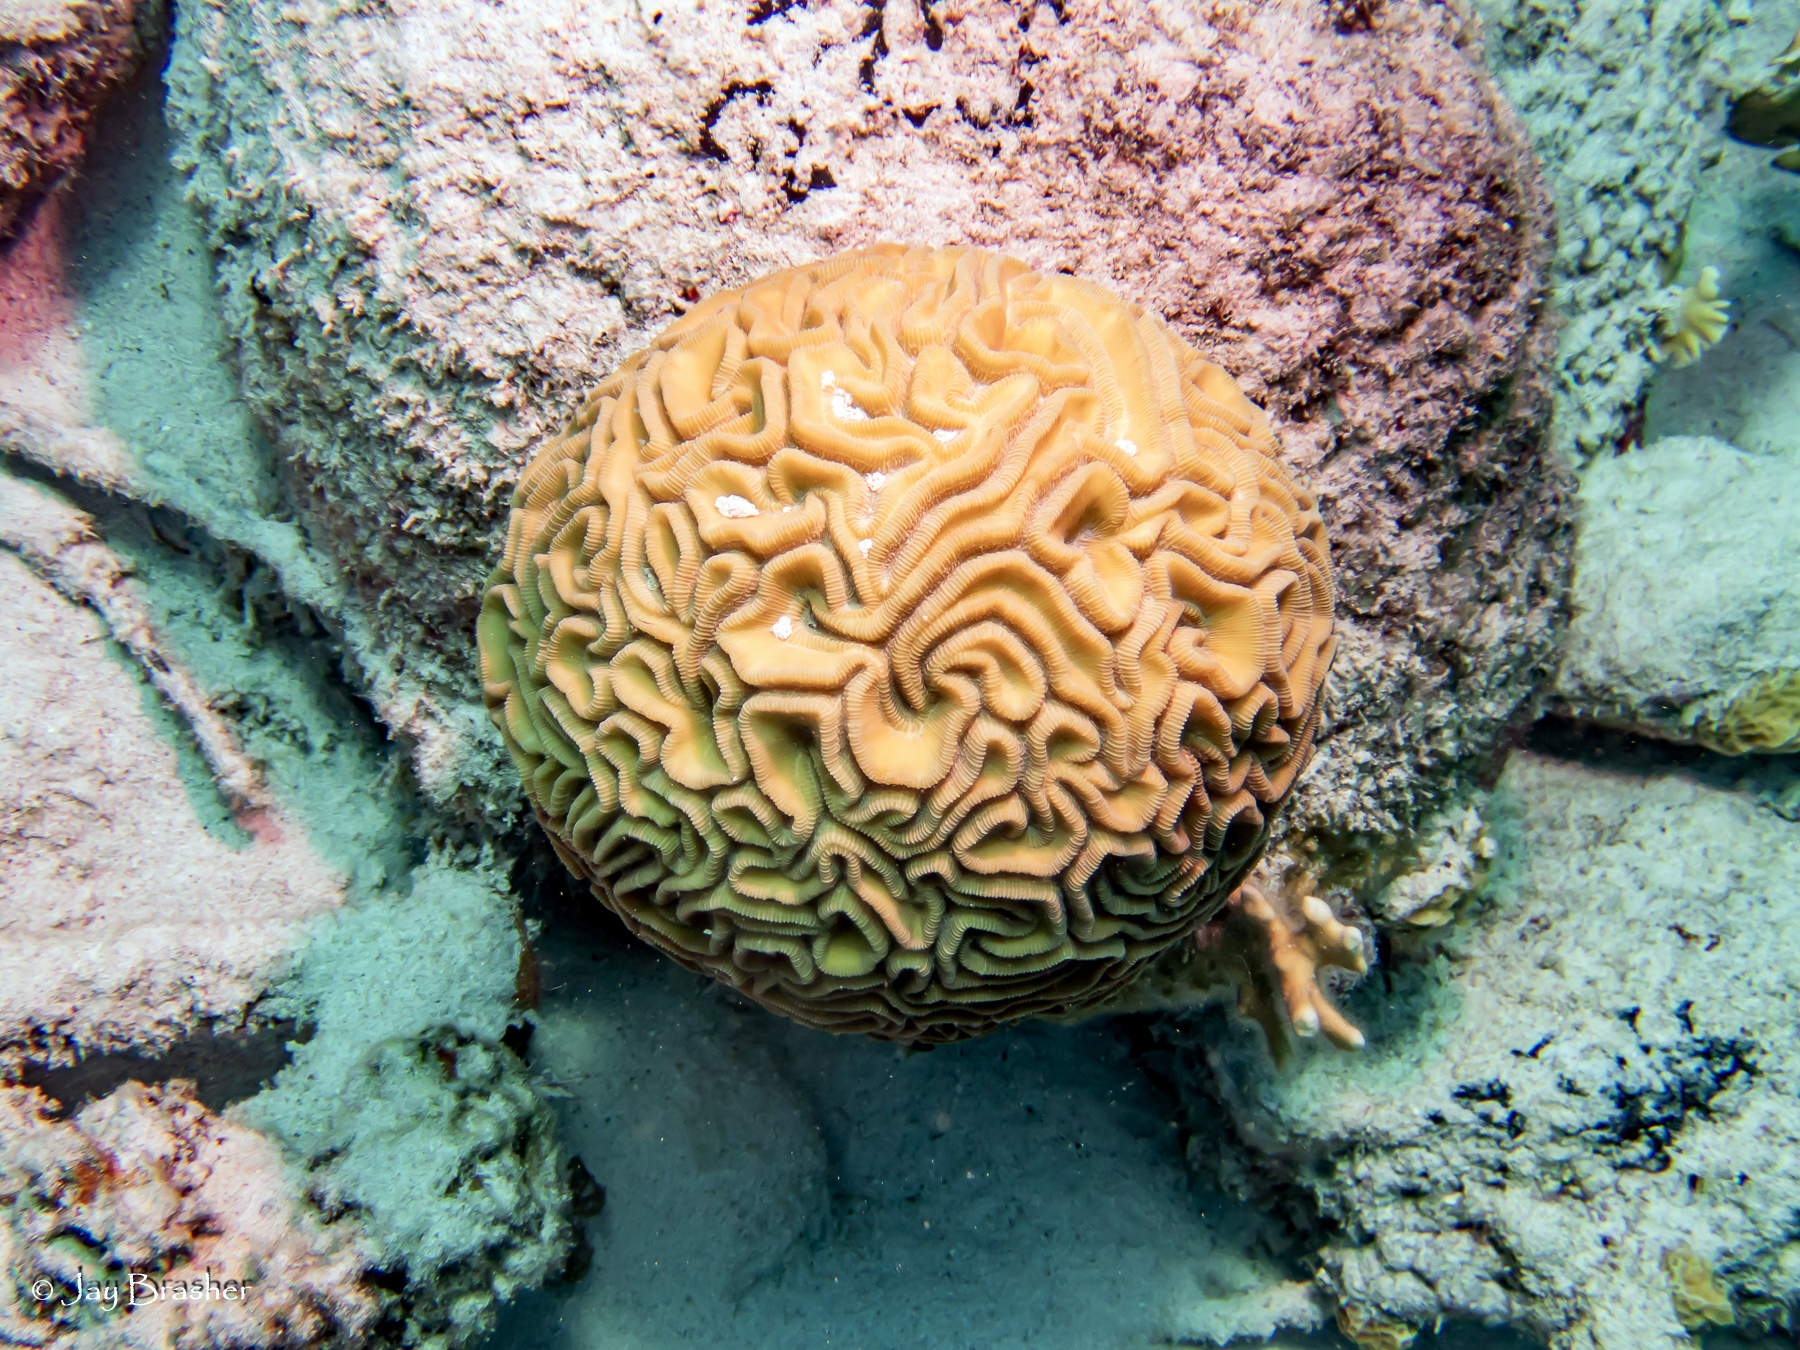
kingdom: Animalia
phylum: Cnidaria
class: Anthozoa
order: Scleractinia
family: Faviidae
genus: Diploria
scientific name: Diploria labyrinthiformis
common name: Grooved brain coral
